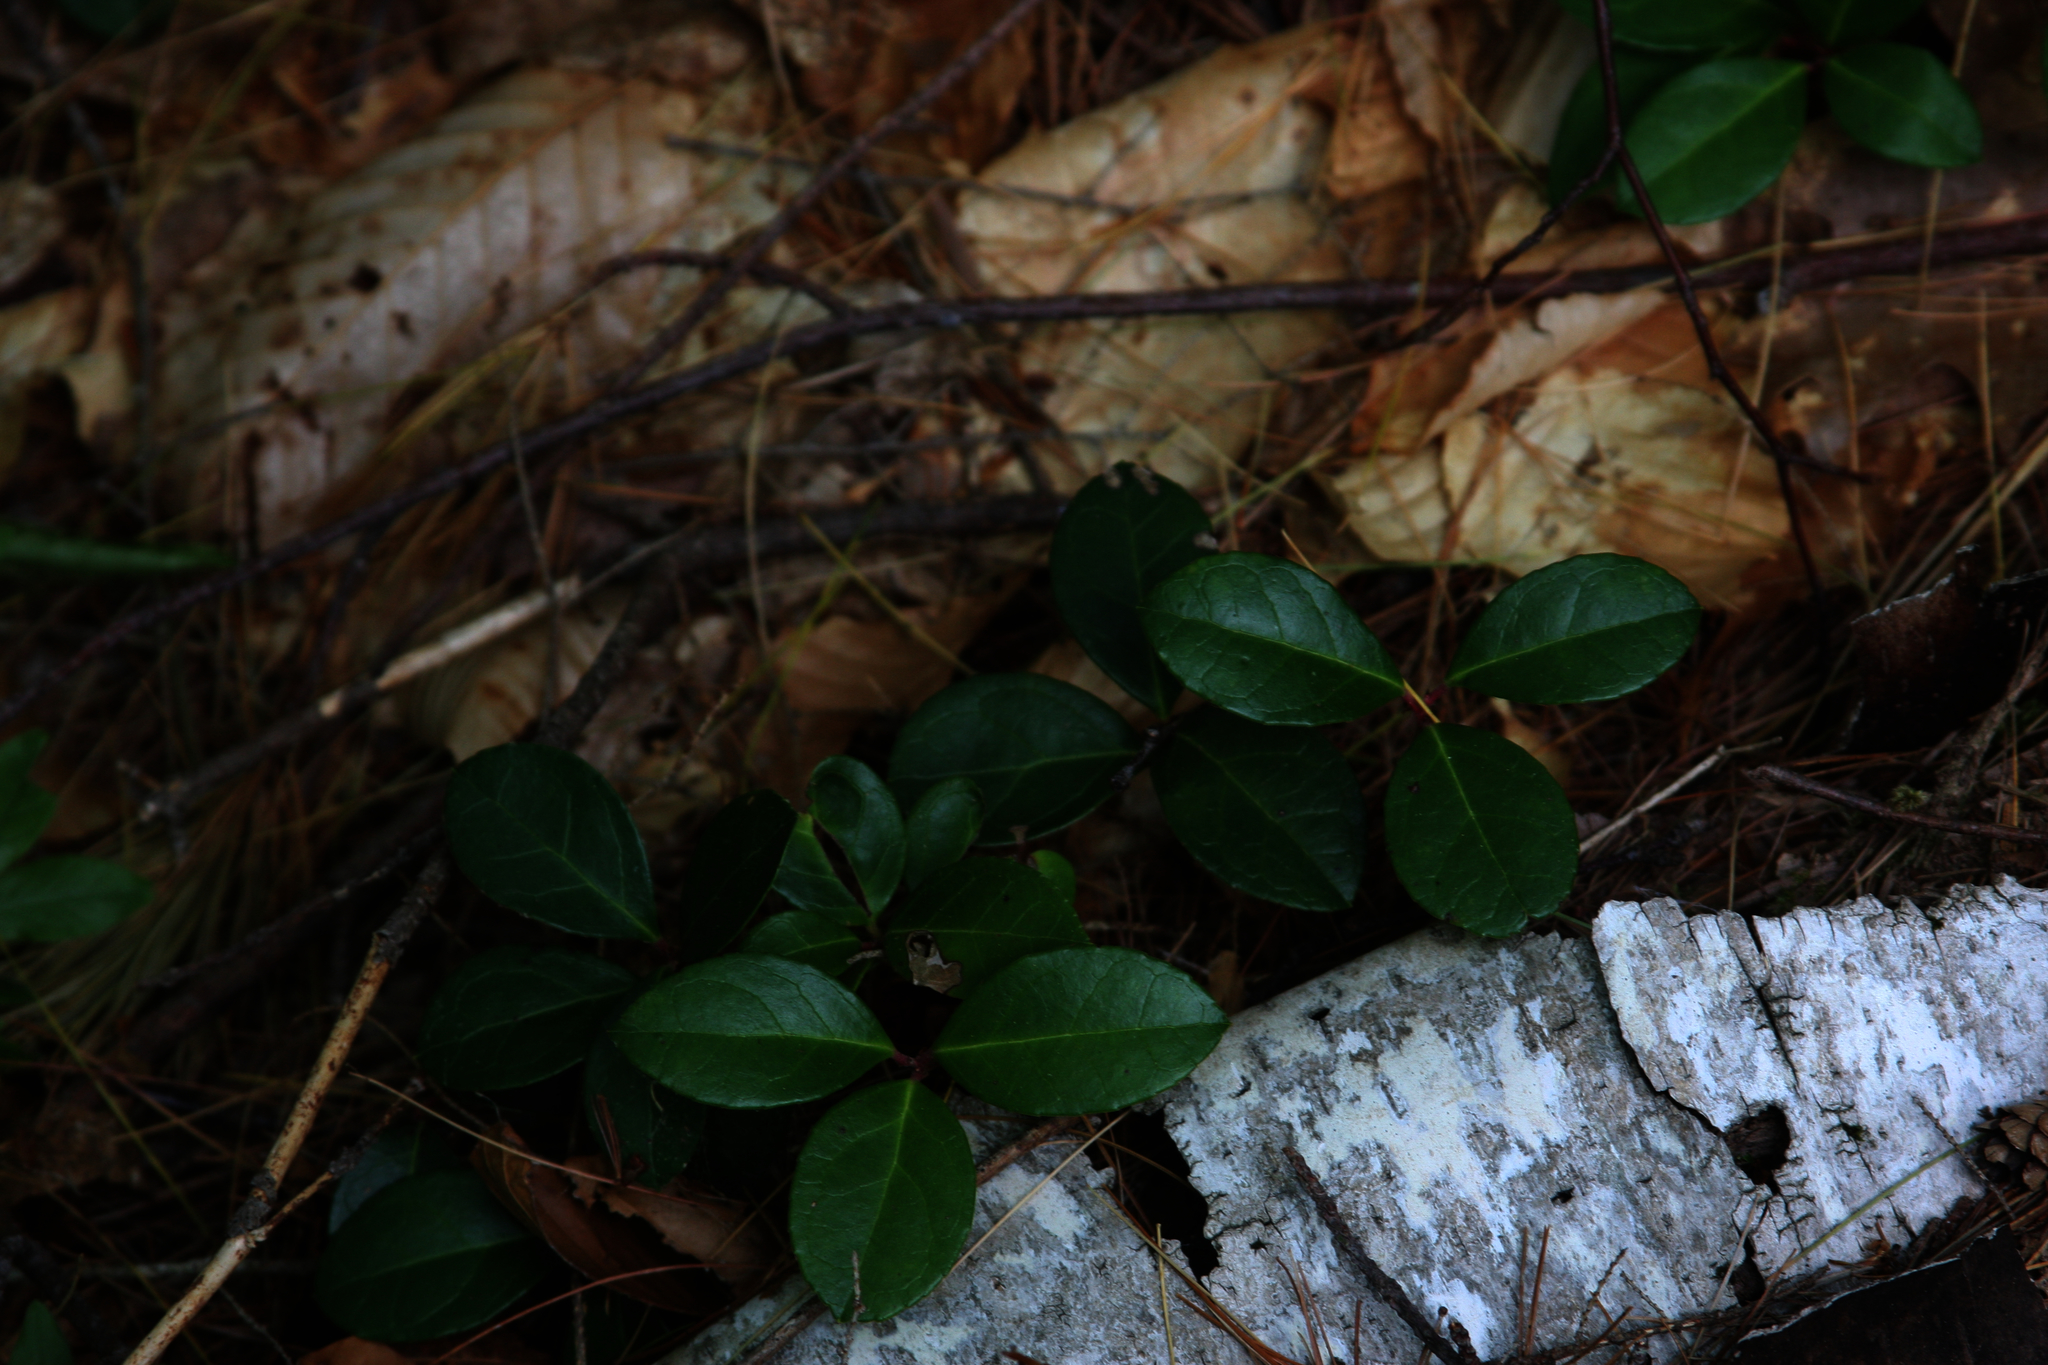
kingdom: Plantae
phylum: Tracheophyta
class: Magnoliopsida
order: Ericales
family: Ericaceae
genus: Gaultheria
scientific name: Gaultheria procumbens
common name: Checkerberry
